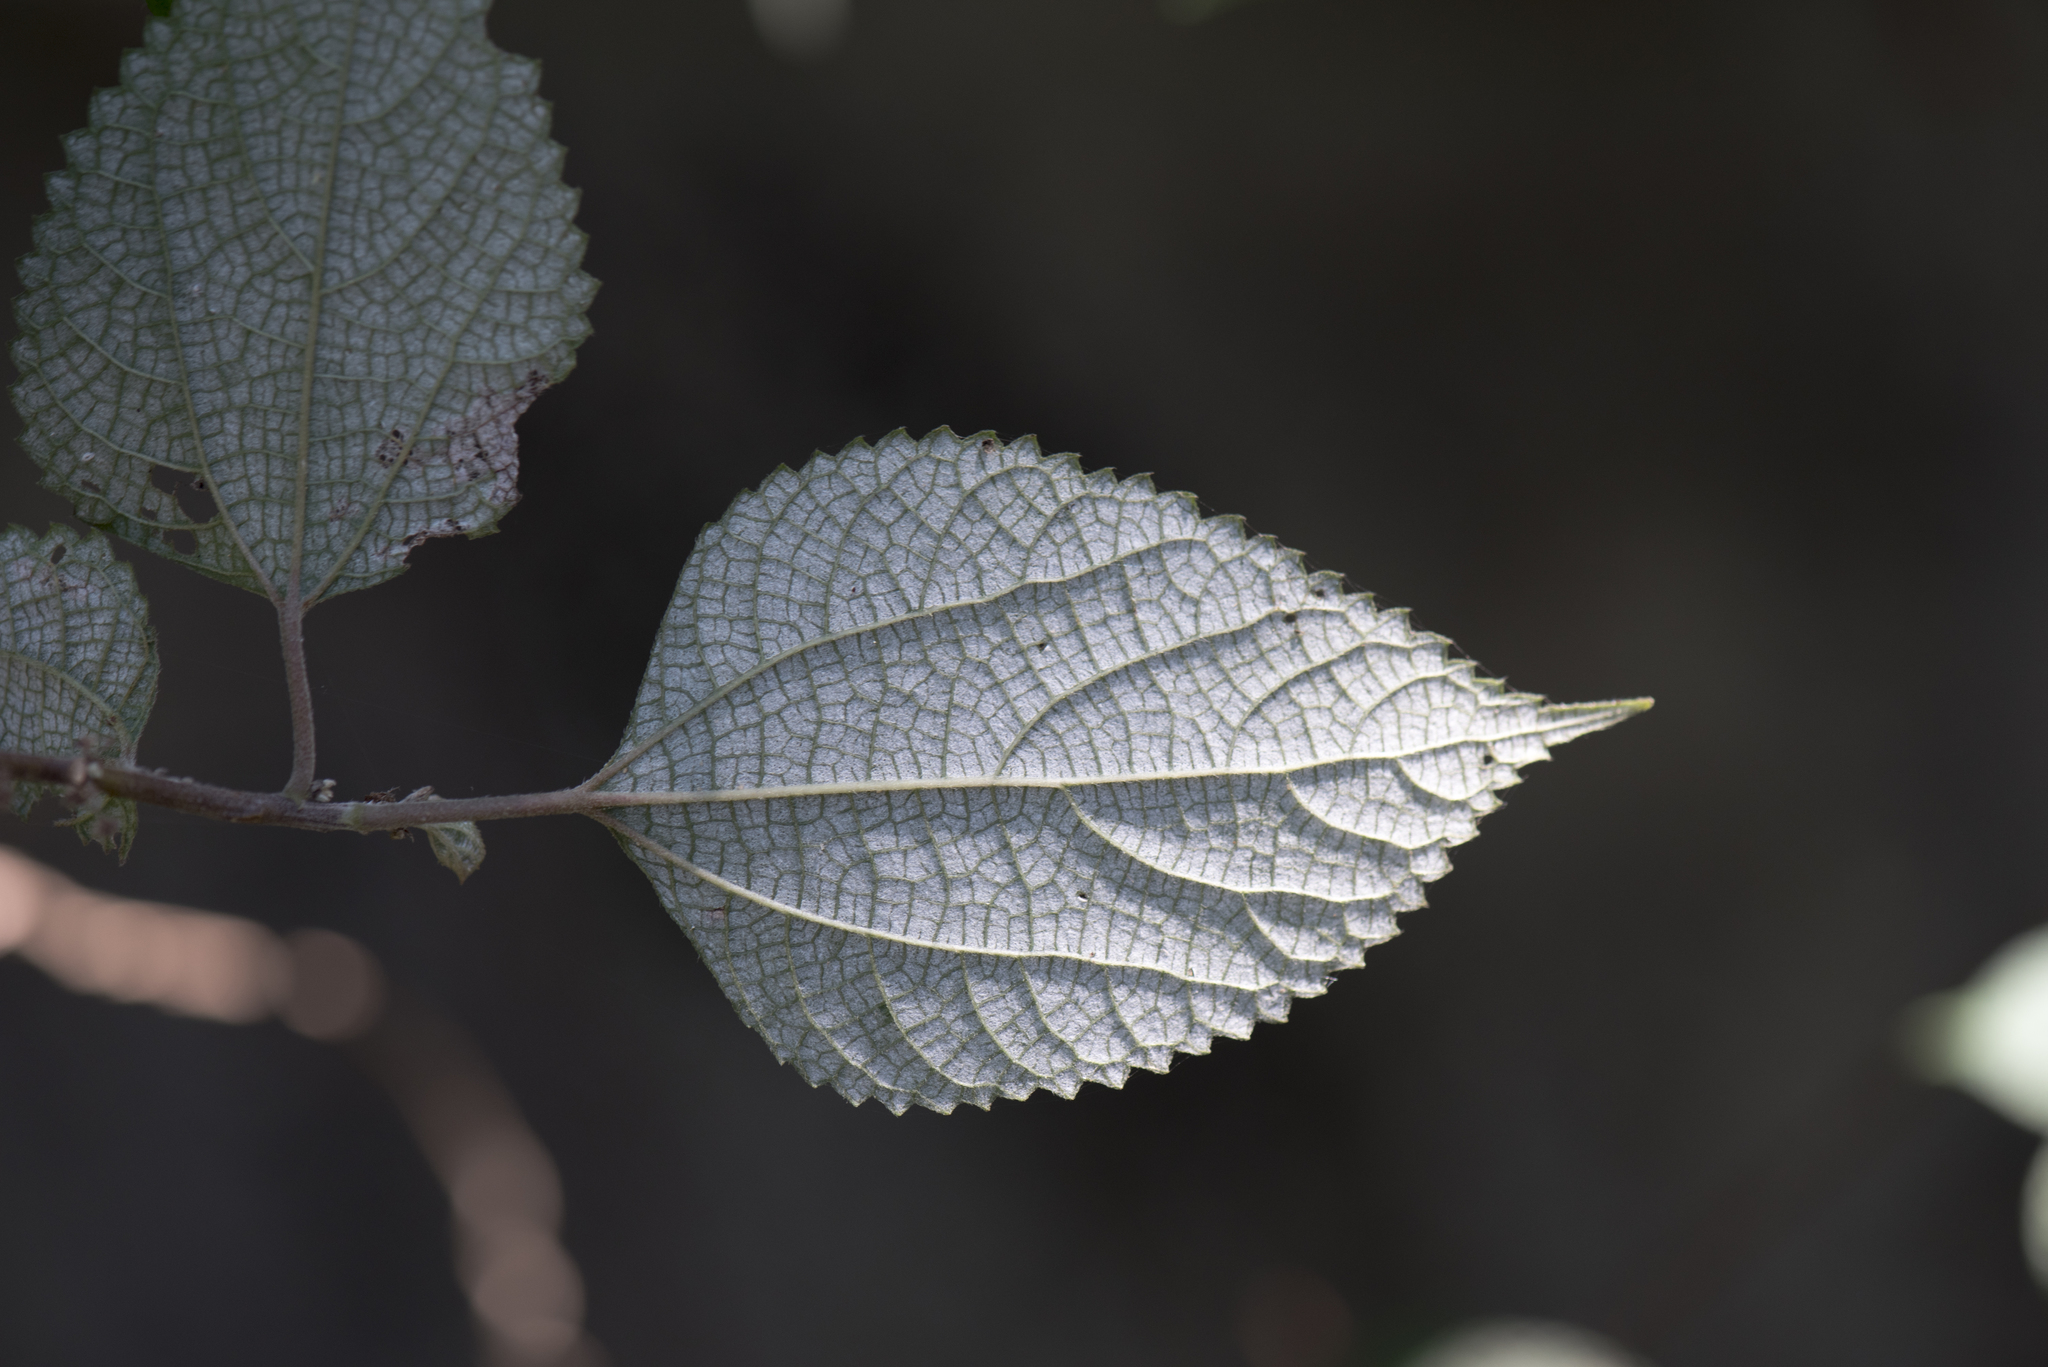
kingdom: Plantae
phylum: Tracheophyta
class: Magnoliopsida
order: Rosales
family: Urticaceae
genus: Boehmeria
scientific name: Boehmeria nivea
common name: Ramie chinese grass
